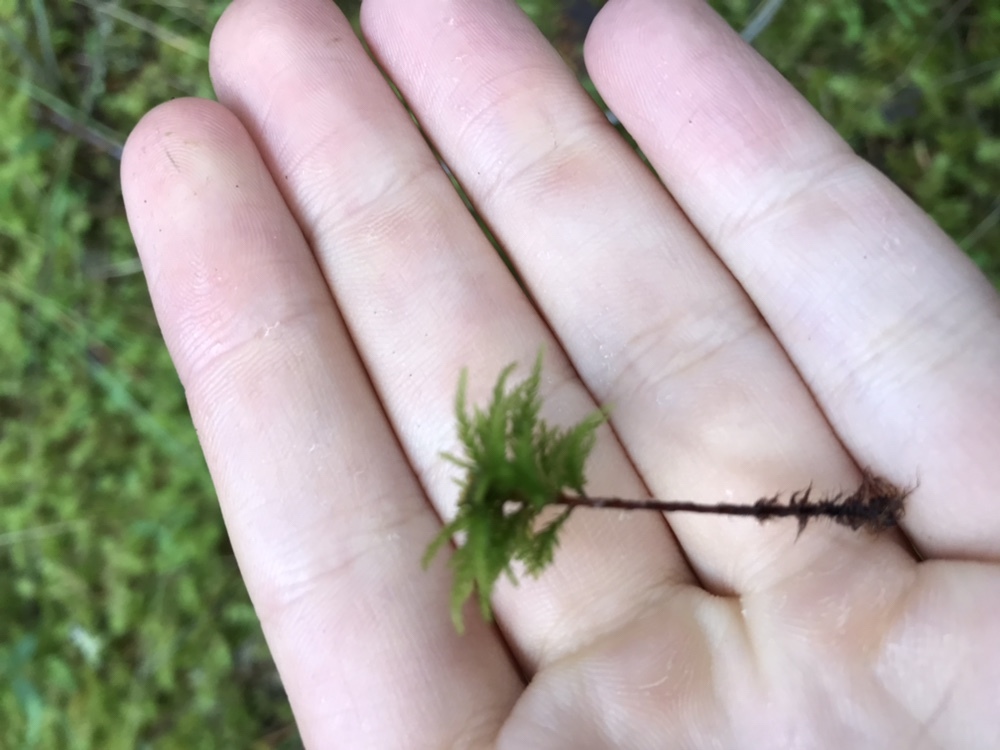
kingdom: Plantae
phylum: Bryophyta
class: Bryopsida
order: Bryales
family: Mniaceae
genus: Leucolepis
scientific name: Leucolepis acanthoneura
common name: Leucolepis umbrella moss
